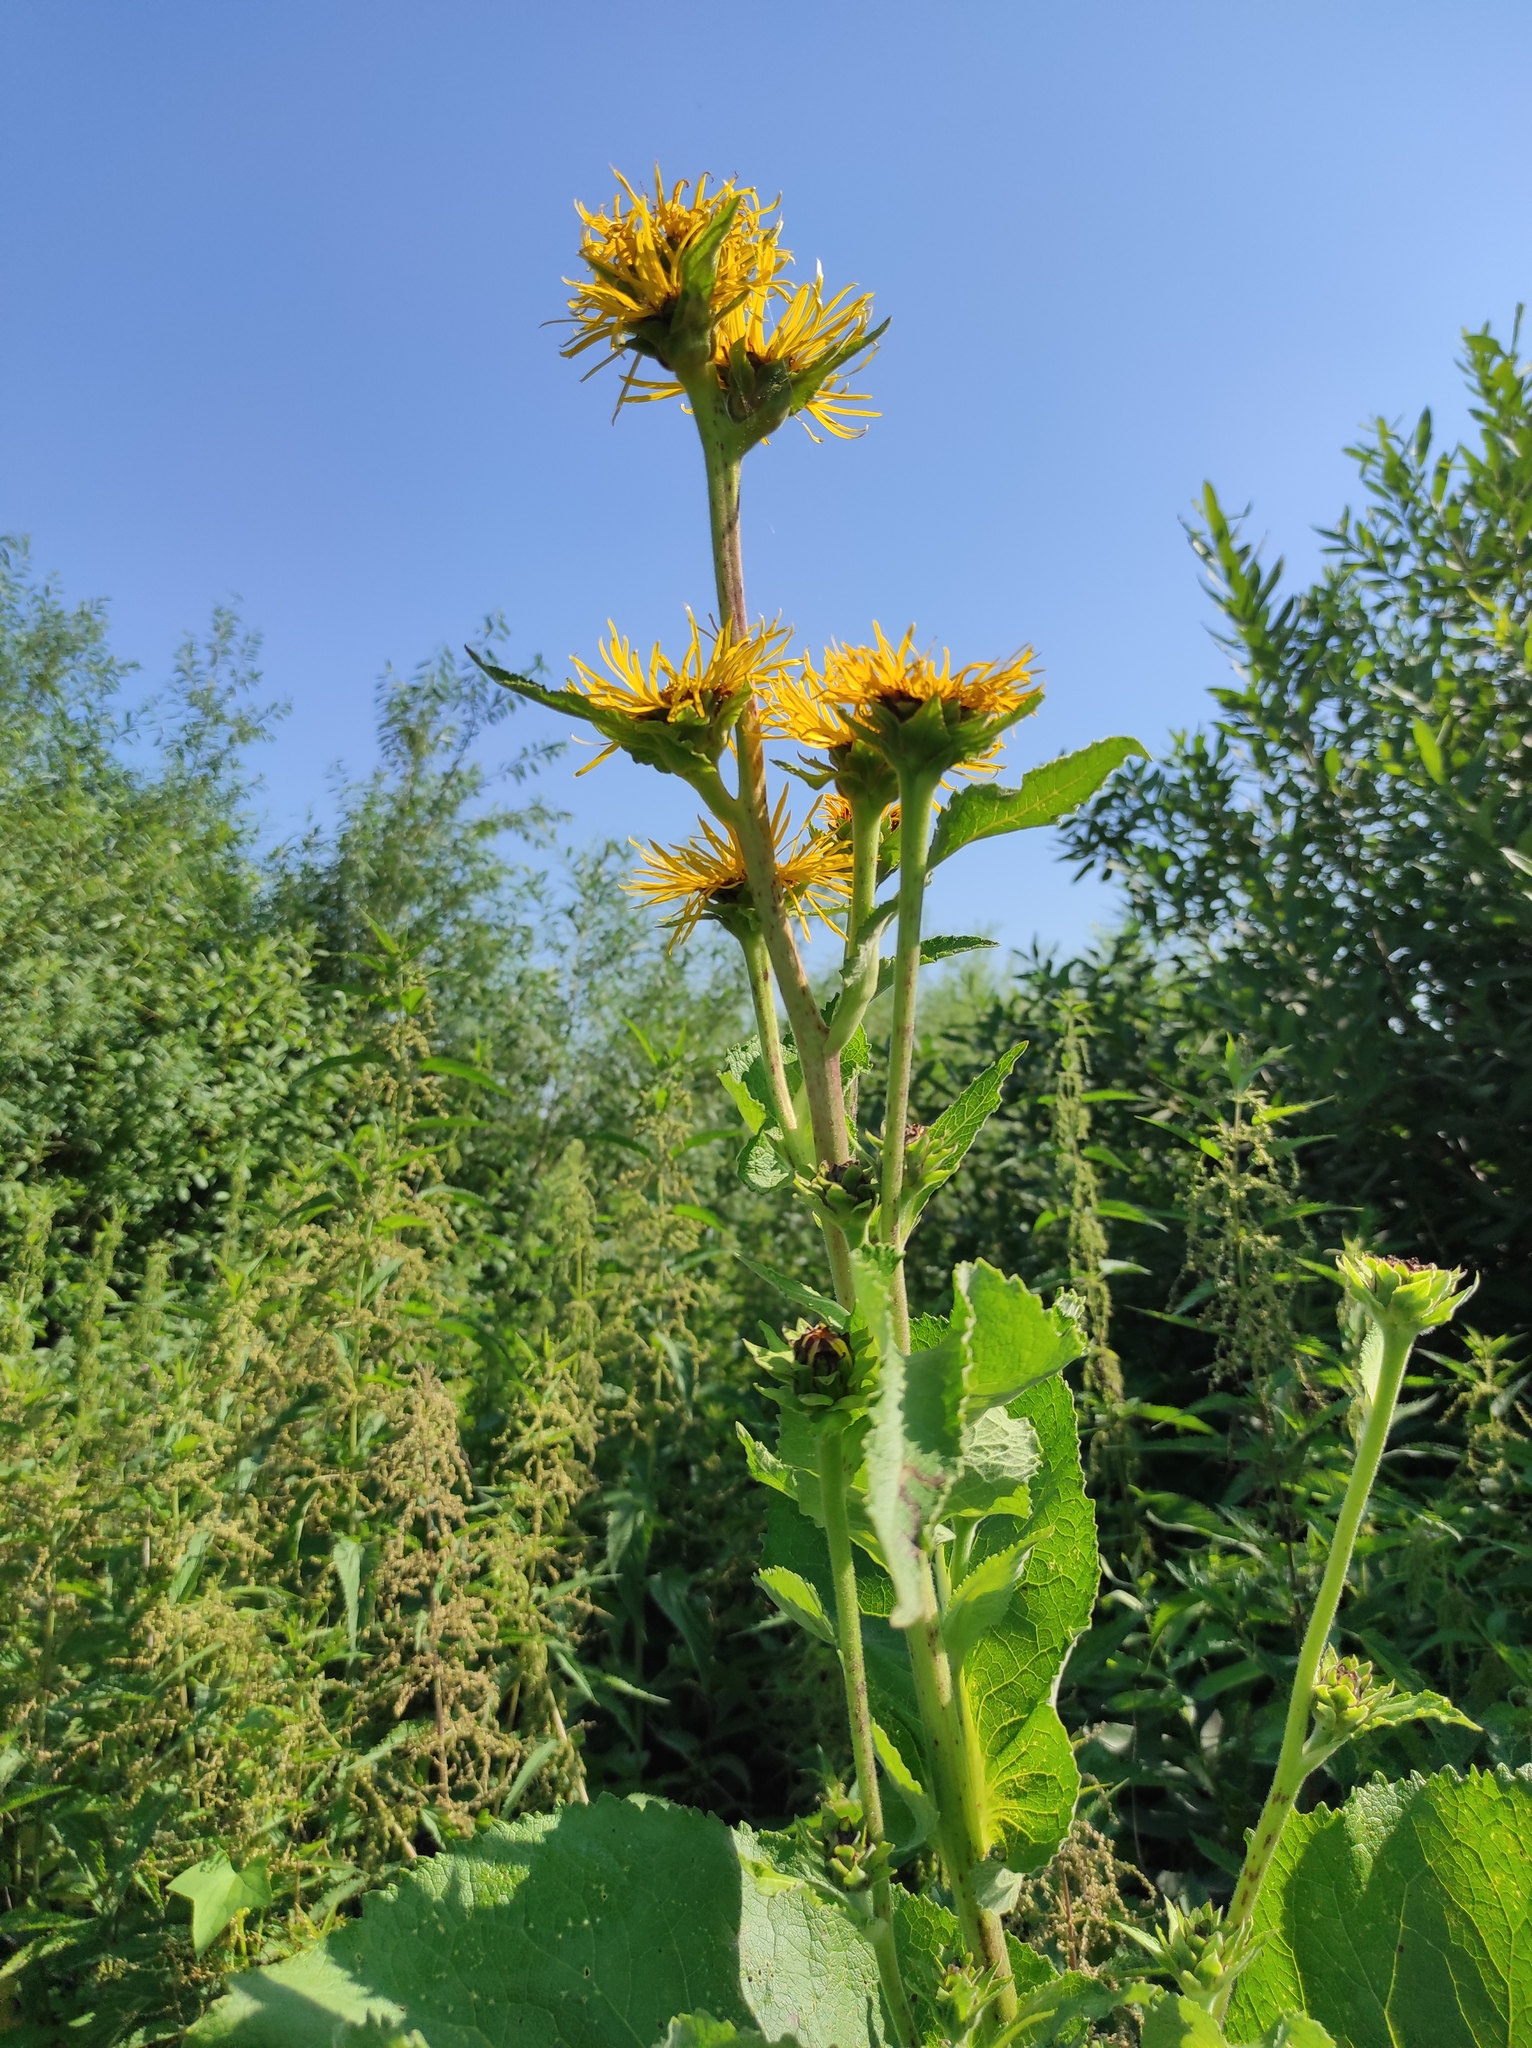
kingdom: Plantae
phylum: Tracheophyta
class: Magnoliopsida
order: Asterales
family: Asteraceae
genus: Inula
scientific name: Inula helenium
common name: Elecampane
